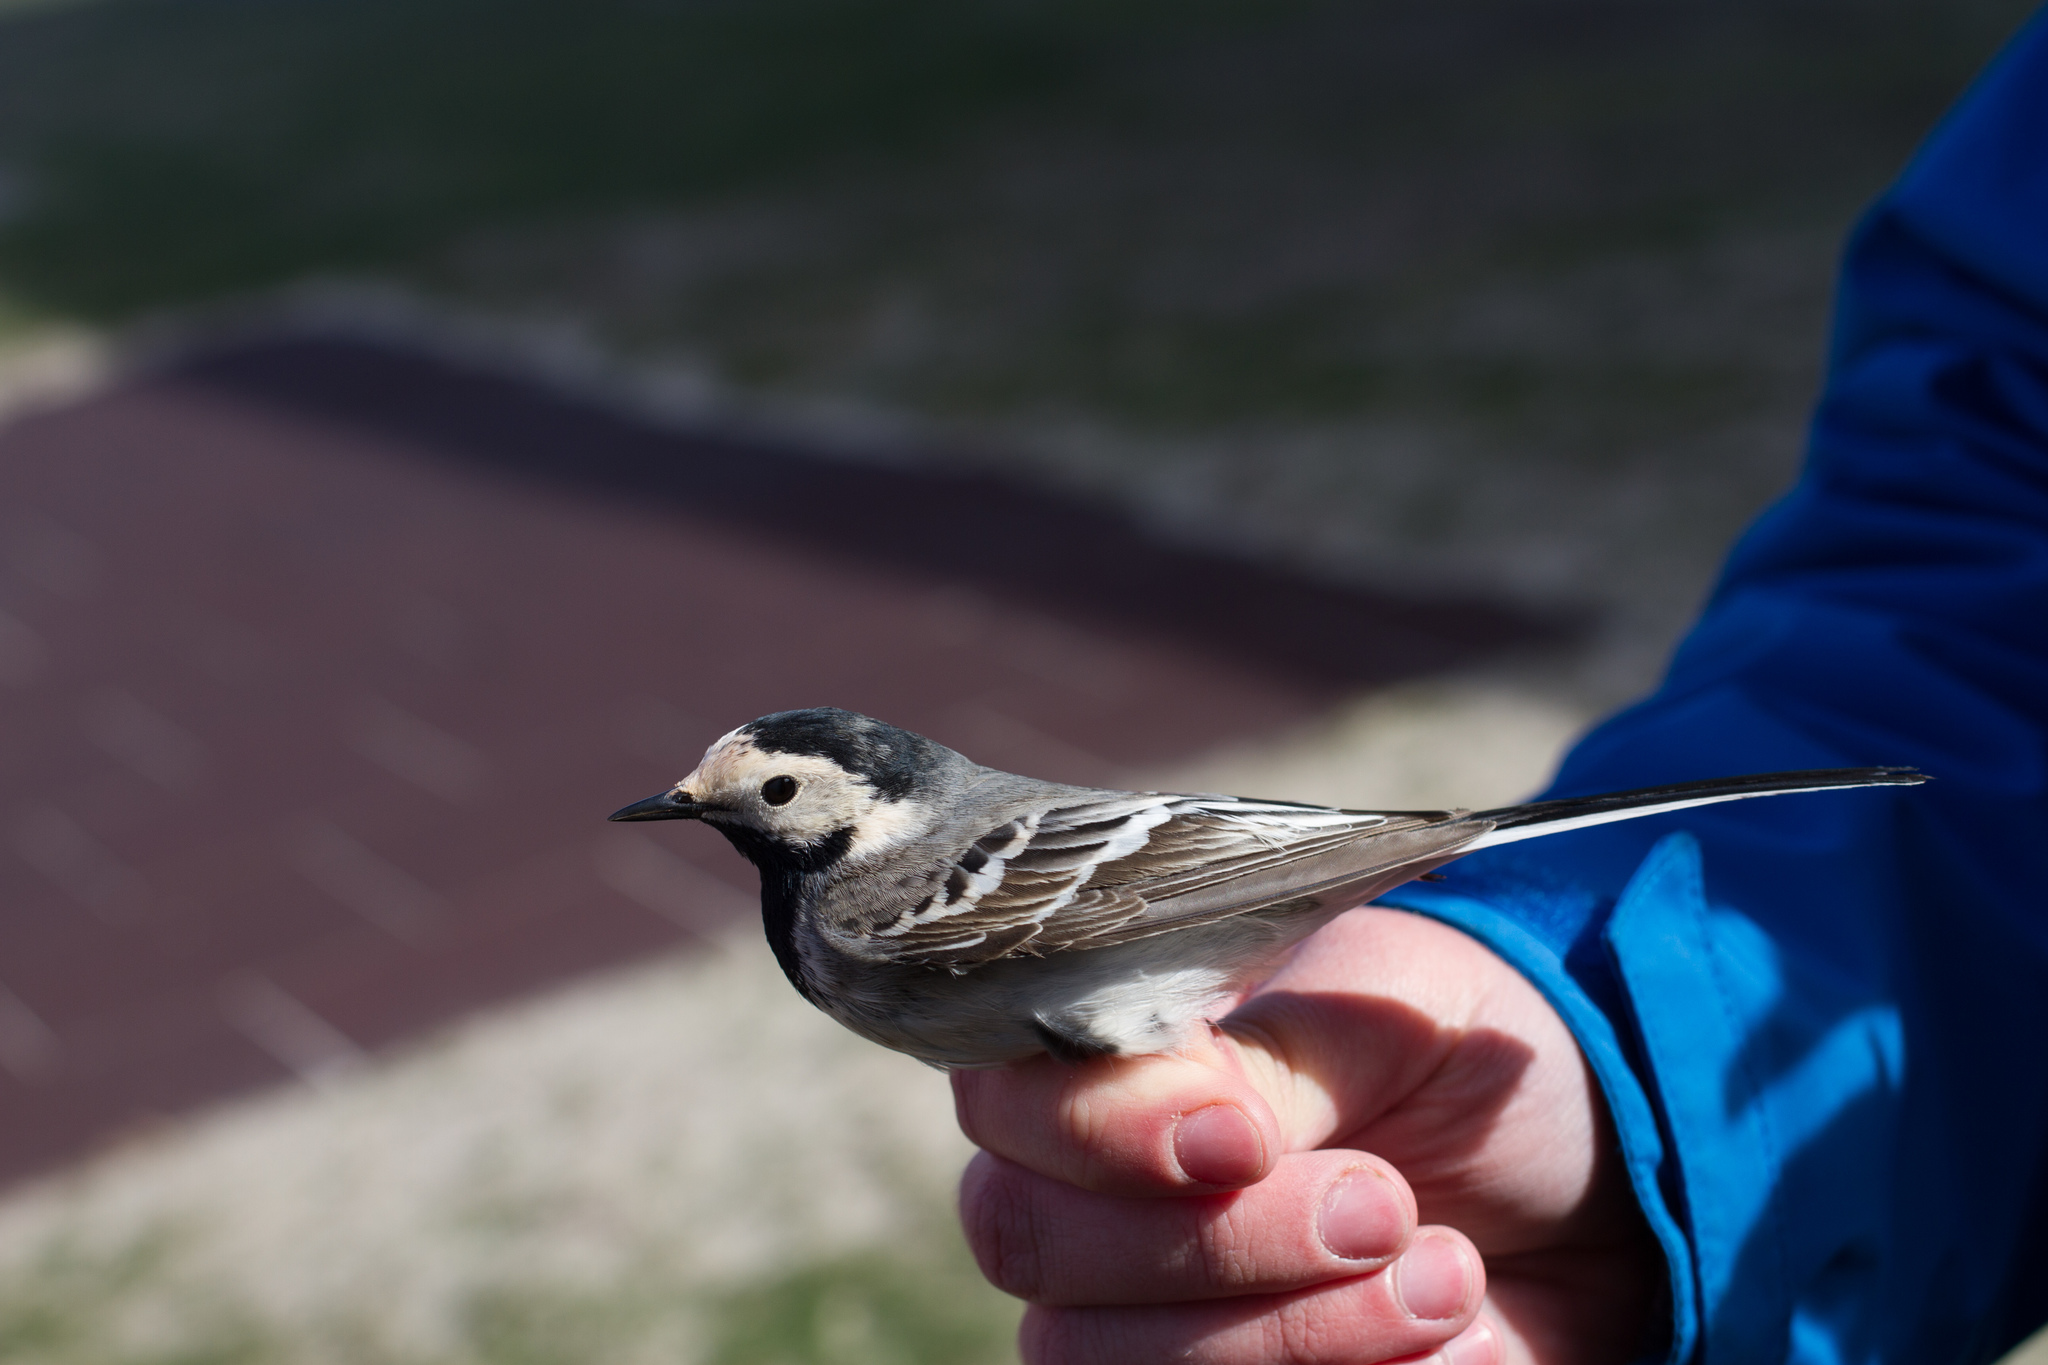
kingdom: Animalia
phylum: Chordata
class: Aves
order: Passeriformes
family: Motacillidae
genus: Motacilla
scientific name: Motacilla alba
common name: White wagtail
